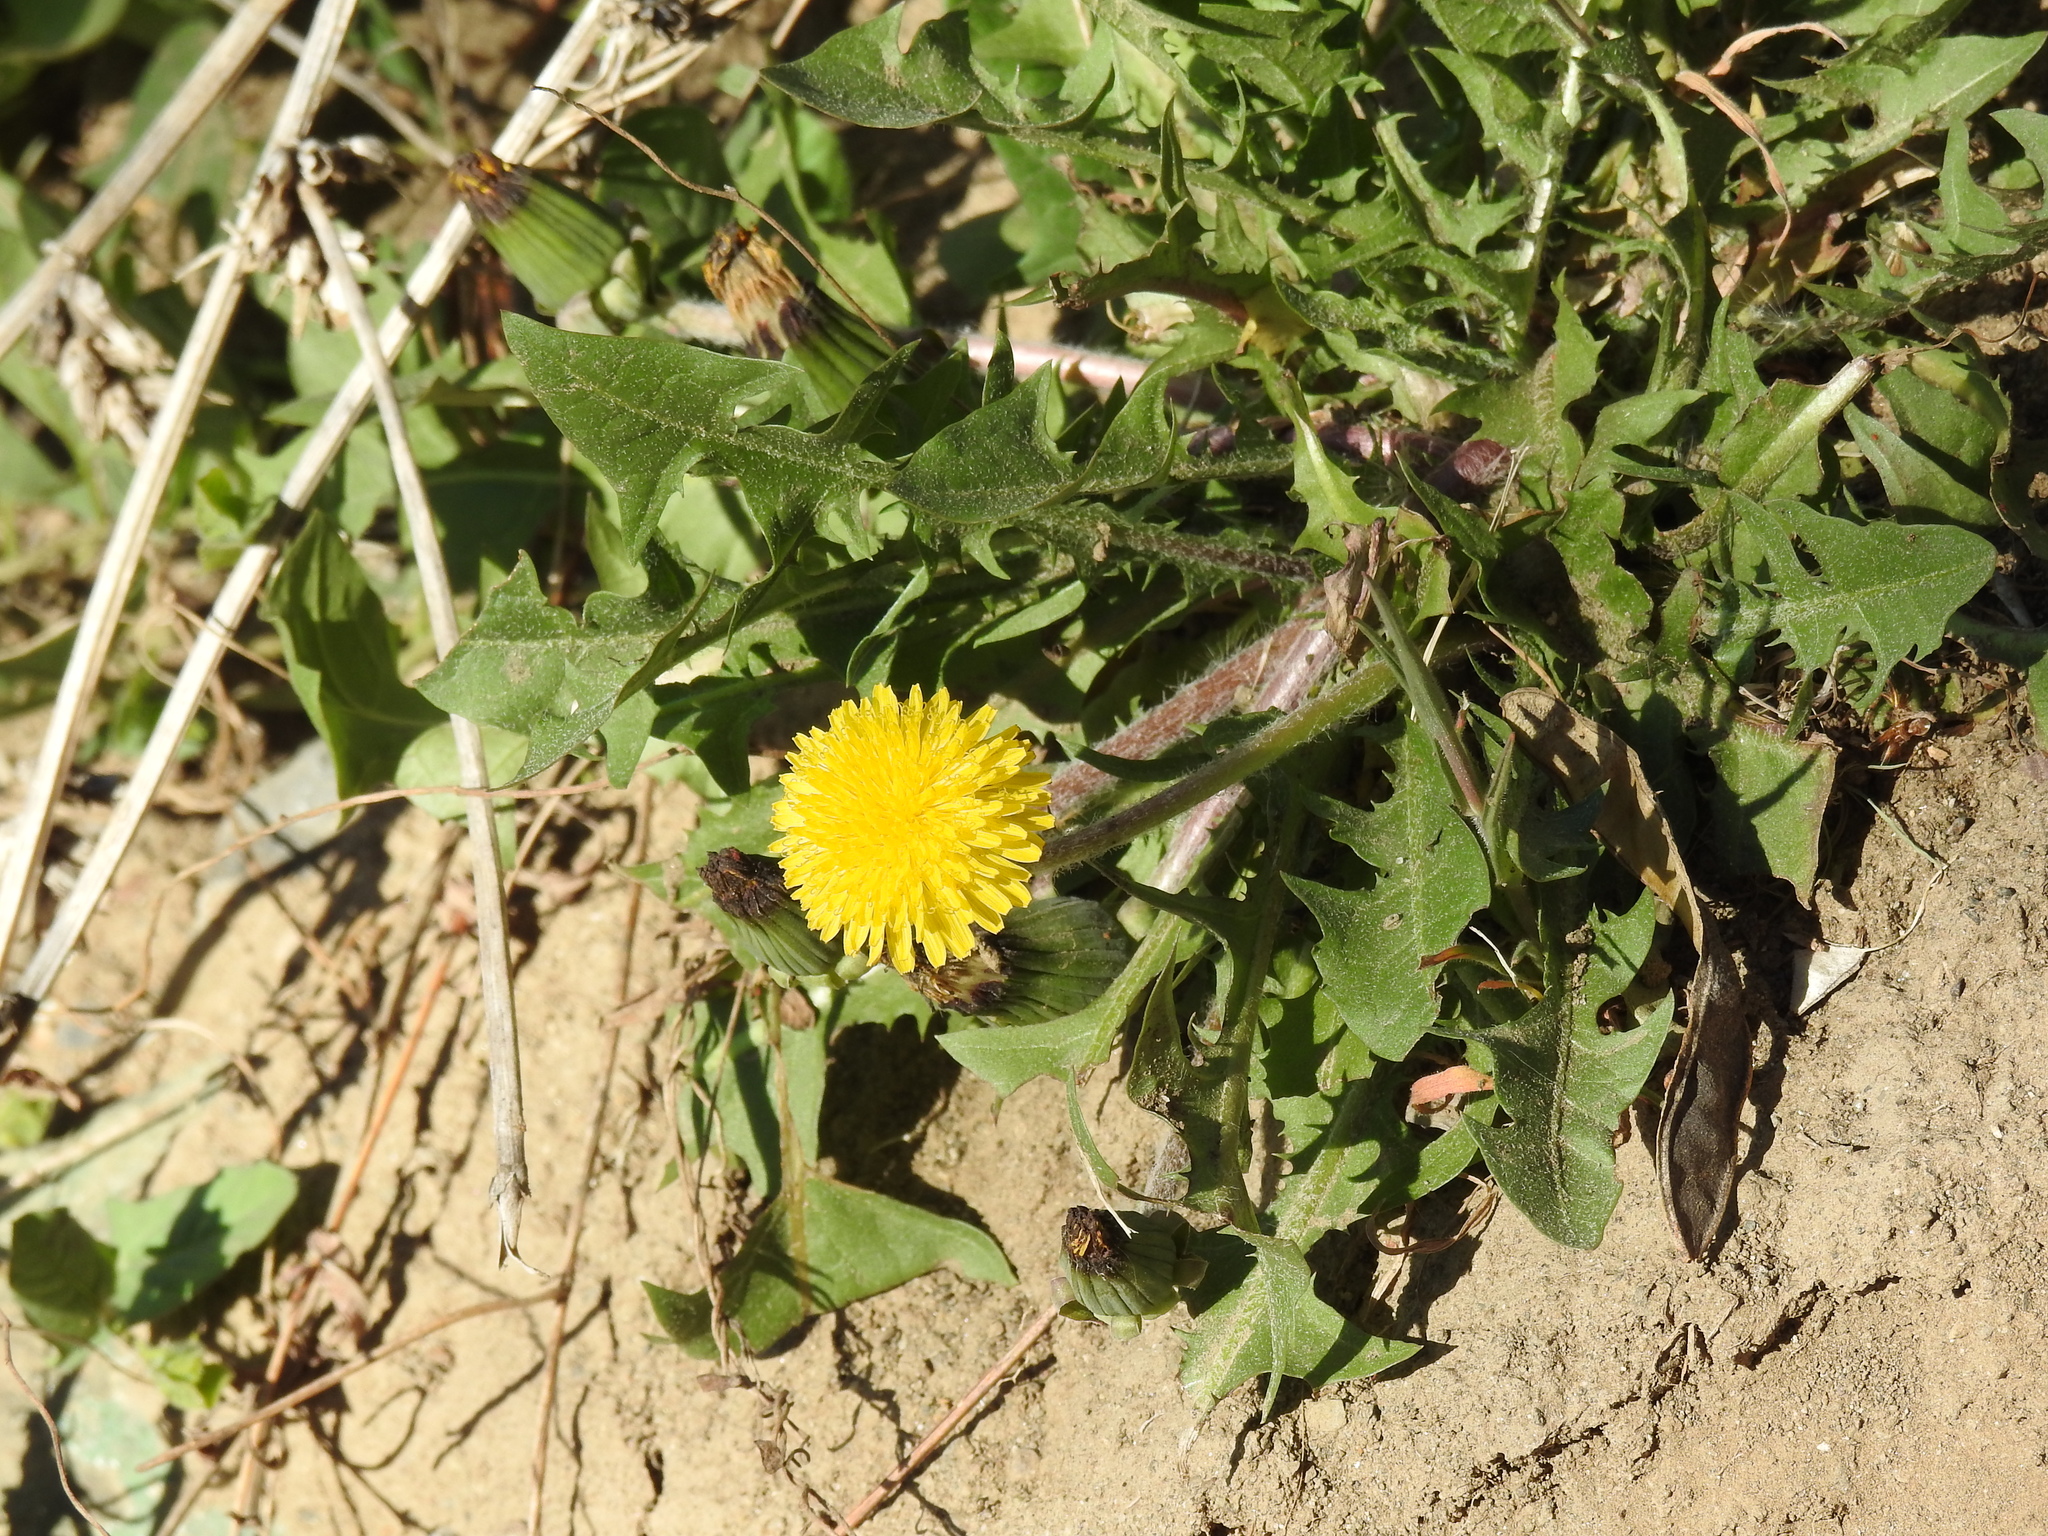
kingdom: Plantae
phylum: Tracheophyta
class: Magnoliopsida
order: Asterales
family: Asteraceae
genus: Taraxacum
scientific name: Taraxacum officinale
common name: Common dandelion
